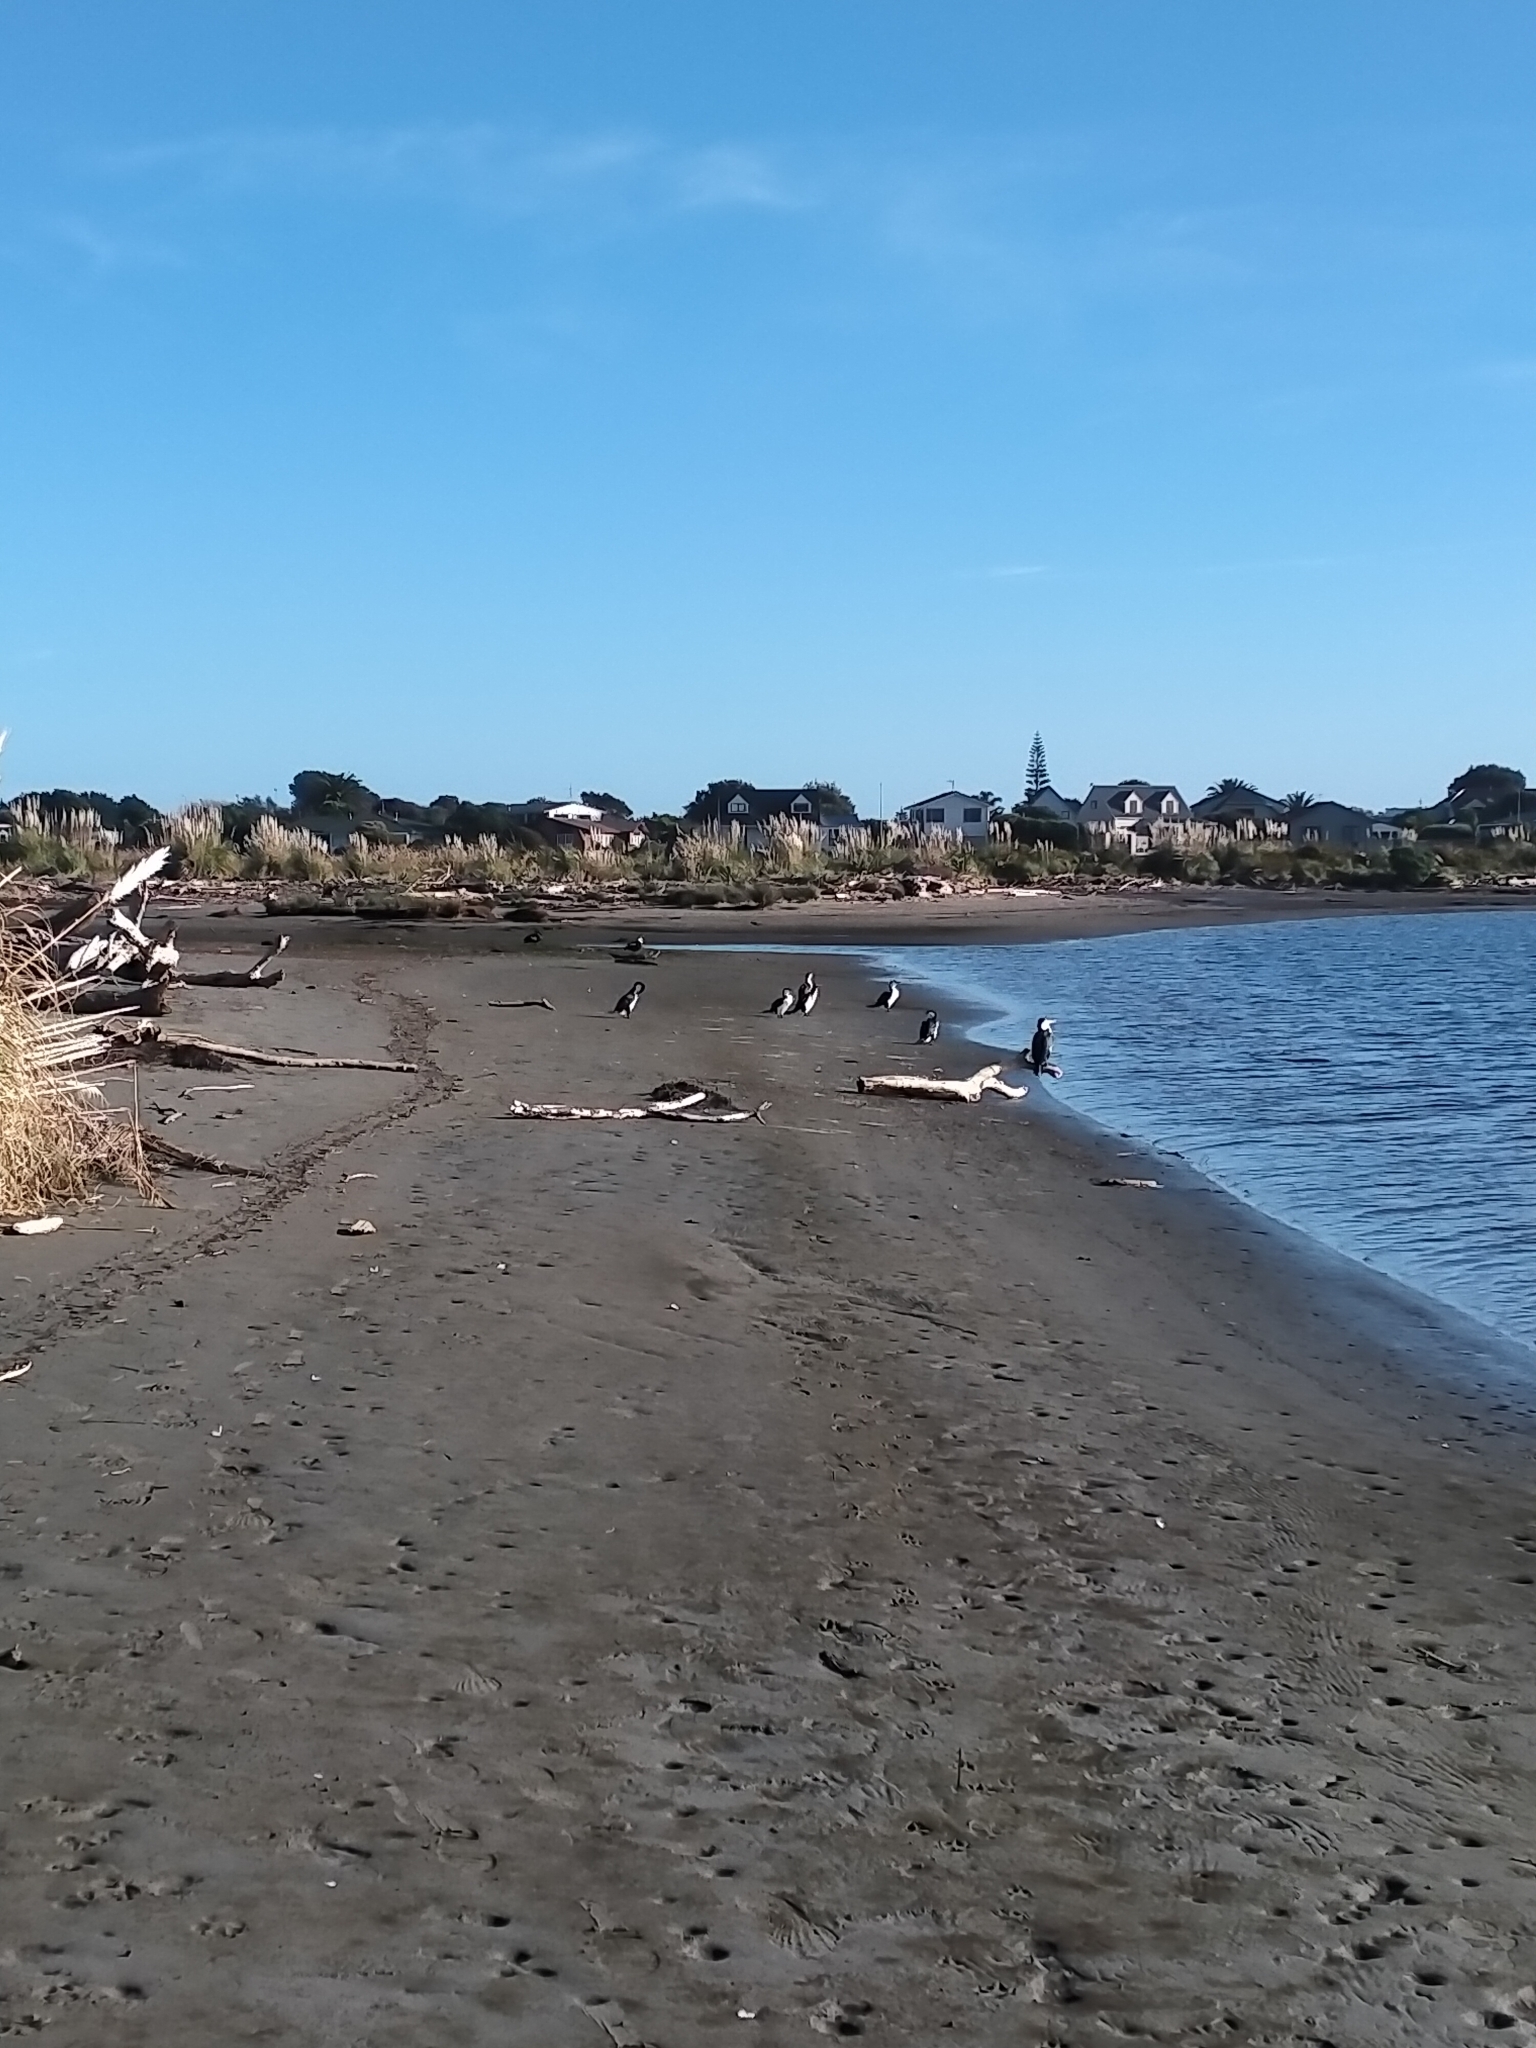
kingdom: Animalia
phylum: Chordata
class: Aves
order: Suliformes
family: Phalacrocoracidae
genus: Phalacrocorax
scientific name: Phalacrocorax varius
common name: Pied cormorant
